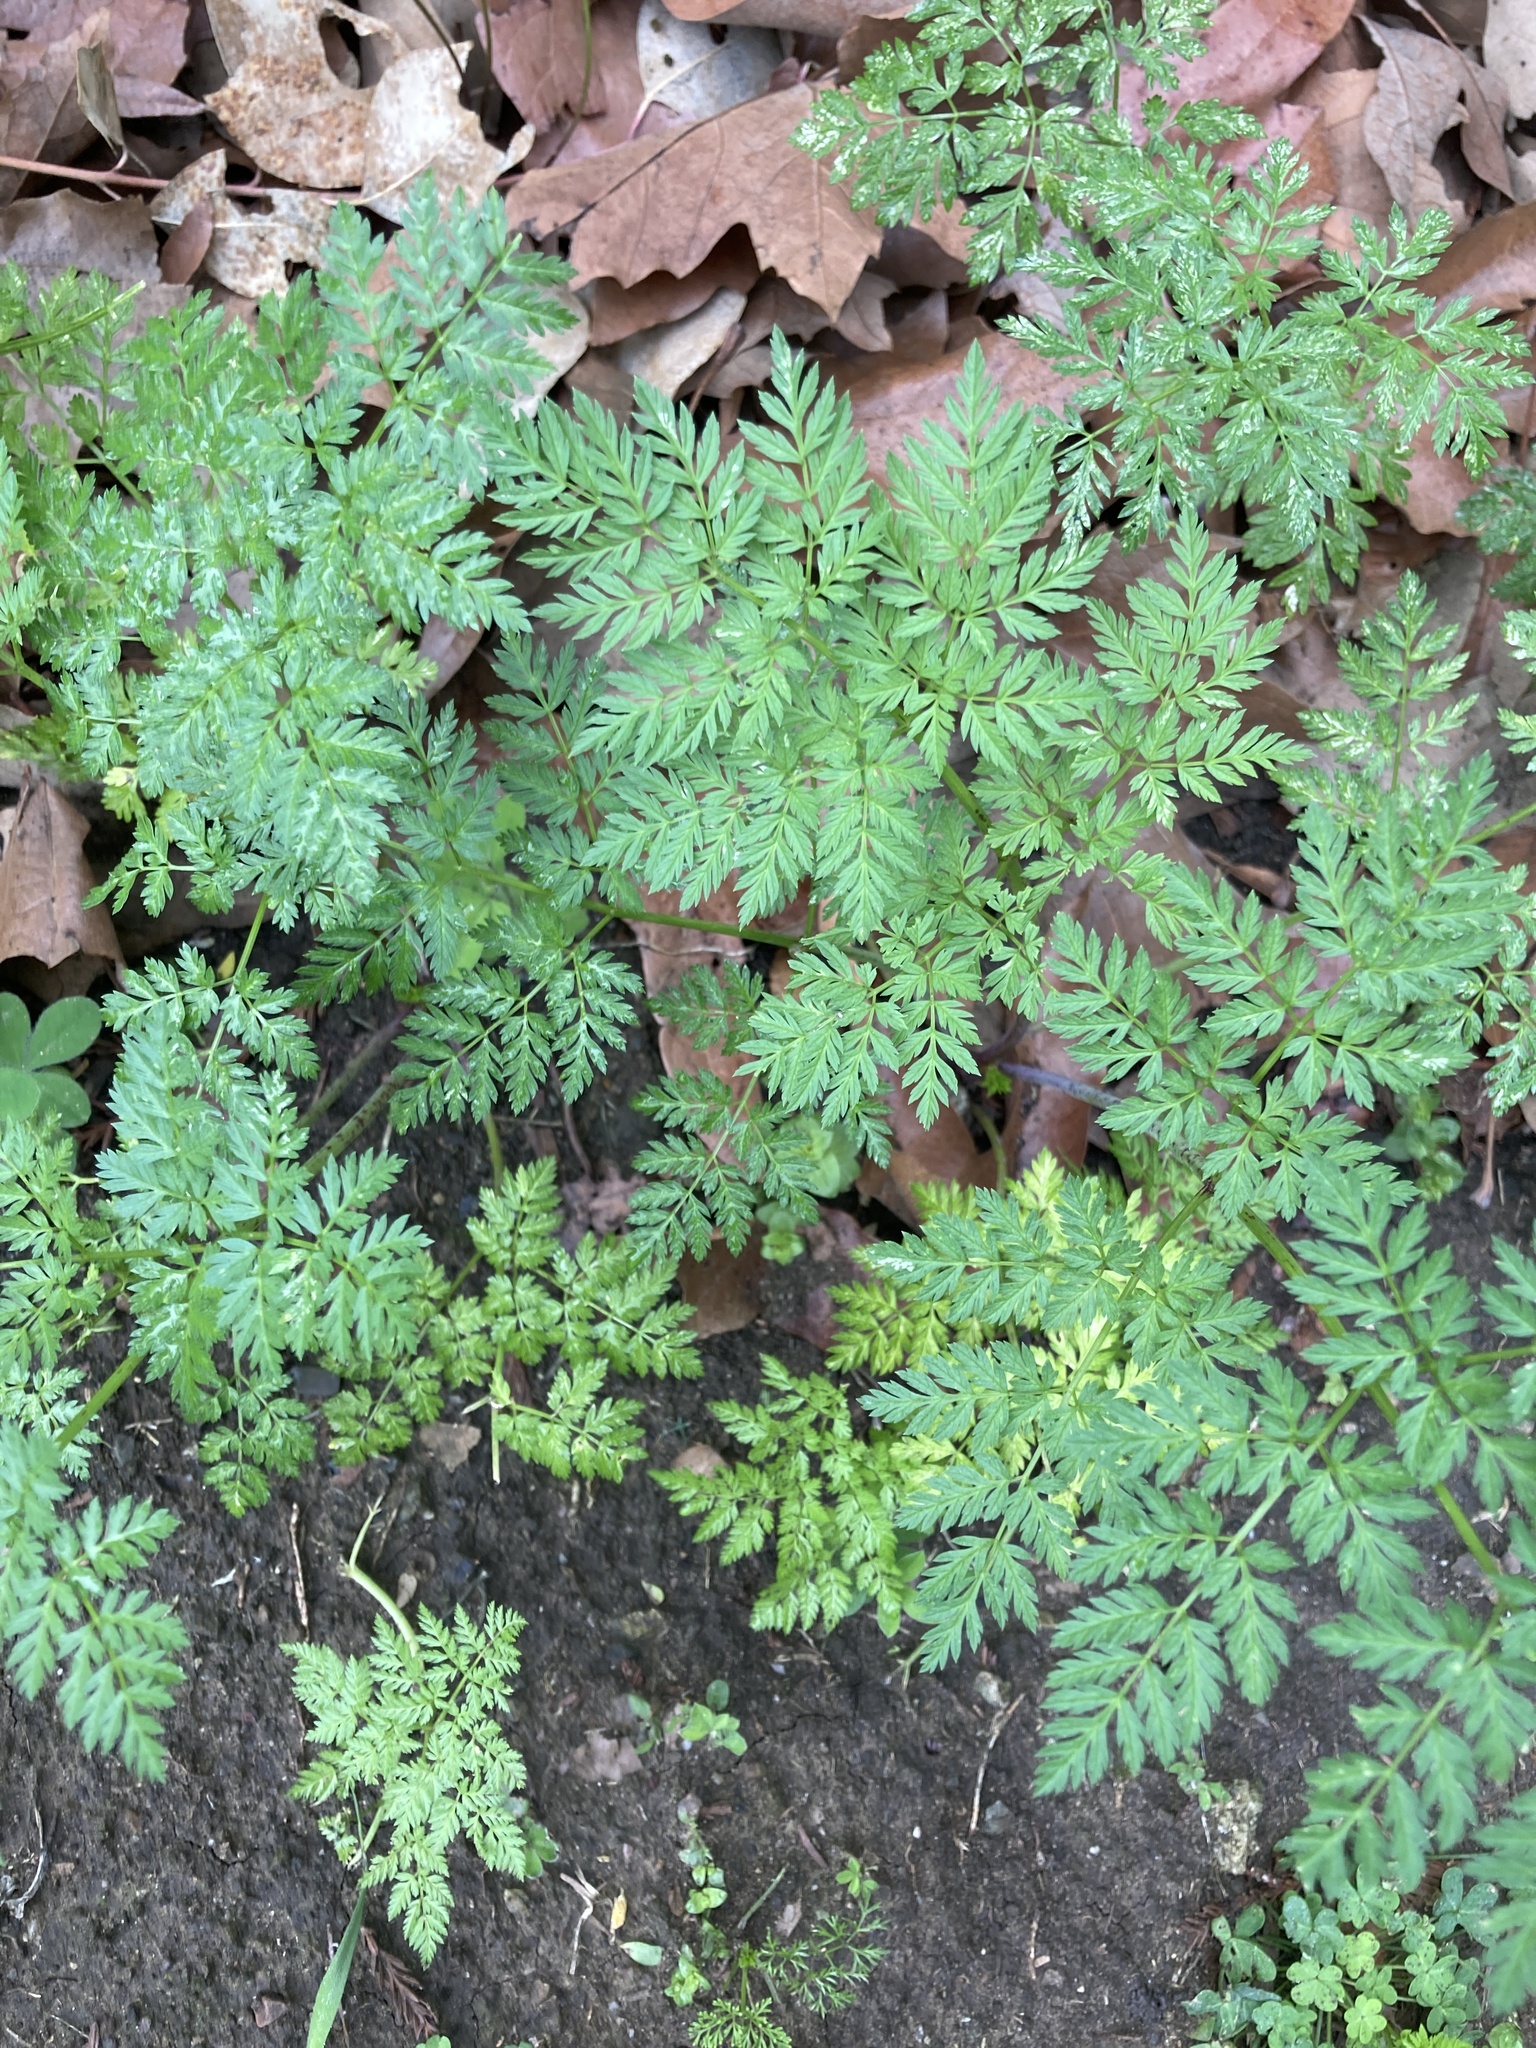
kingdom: Plantae
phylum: Tracheophyta
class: Magnoliopsida
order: Apiales
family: Apiaceae
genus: Conium
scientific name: Conium maculatum
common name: Hemlock
